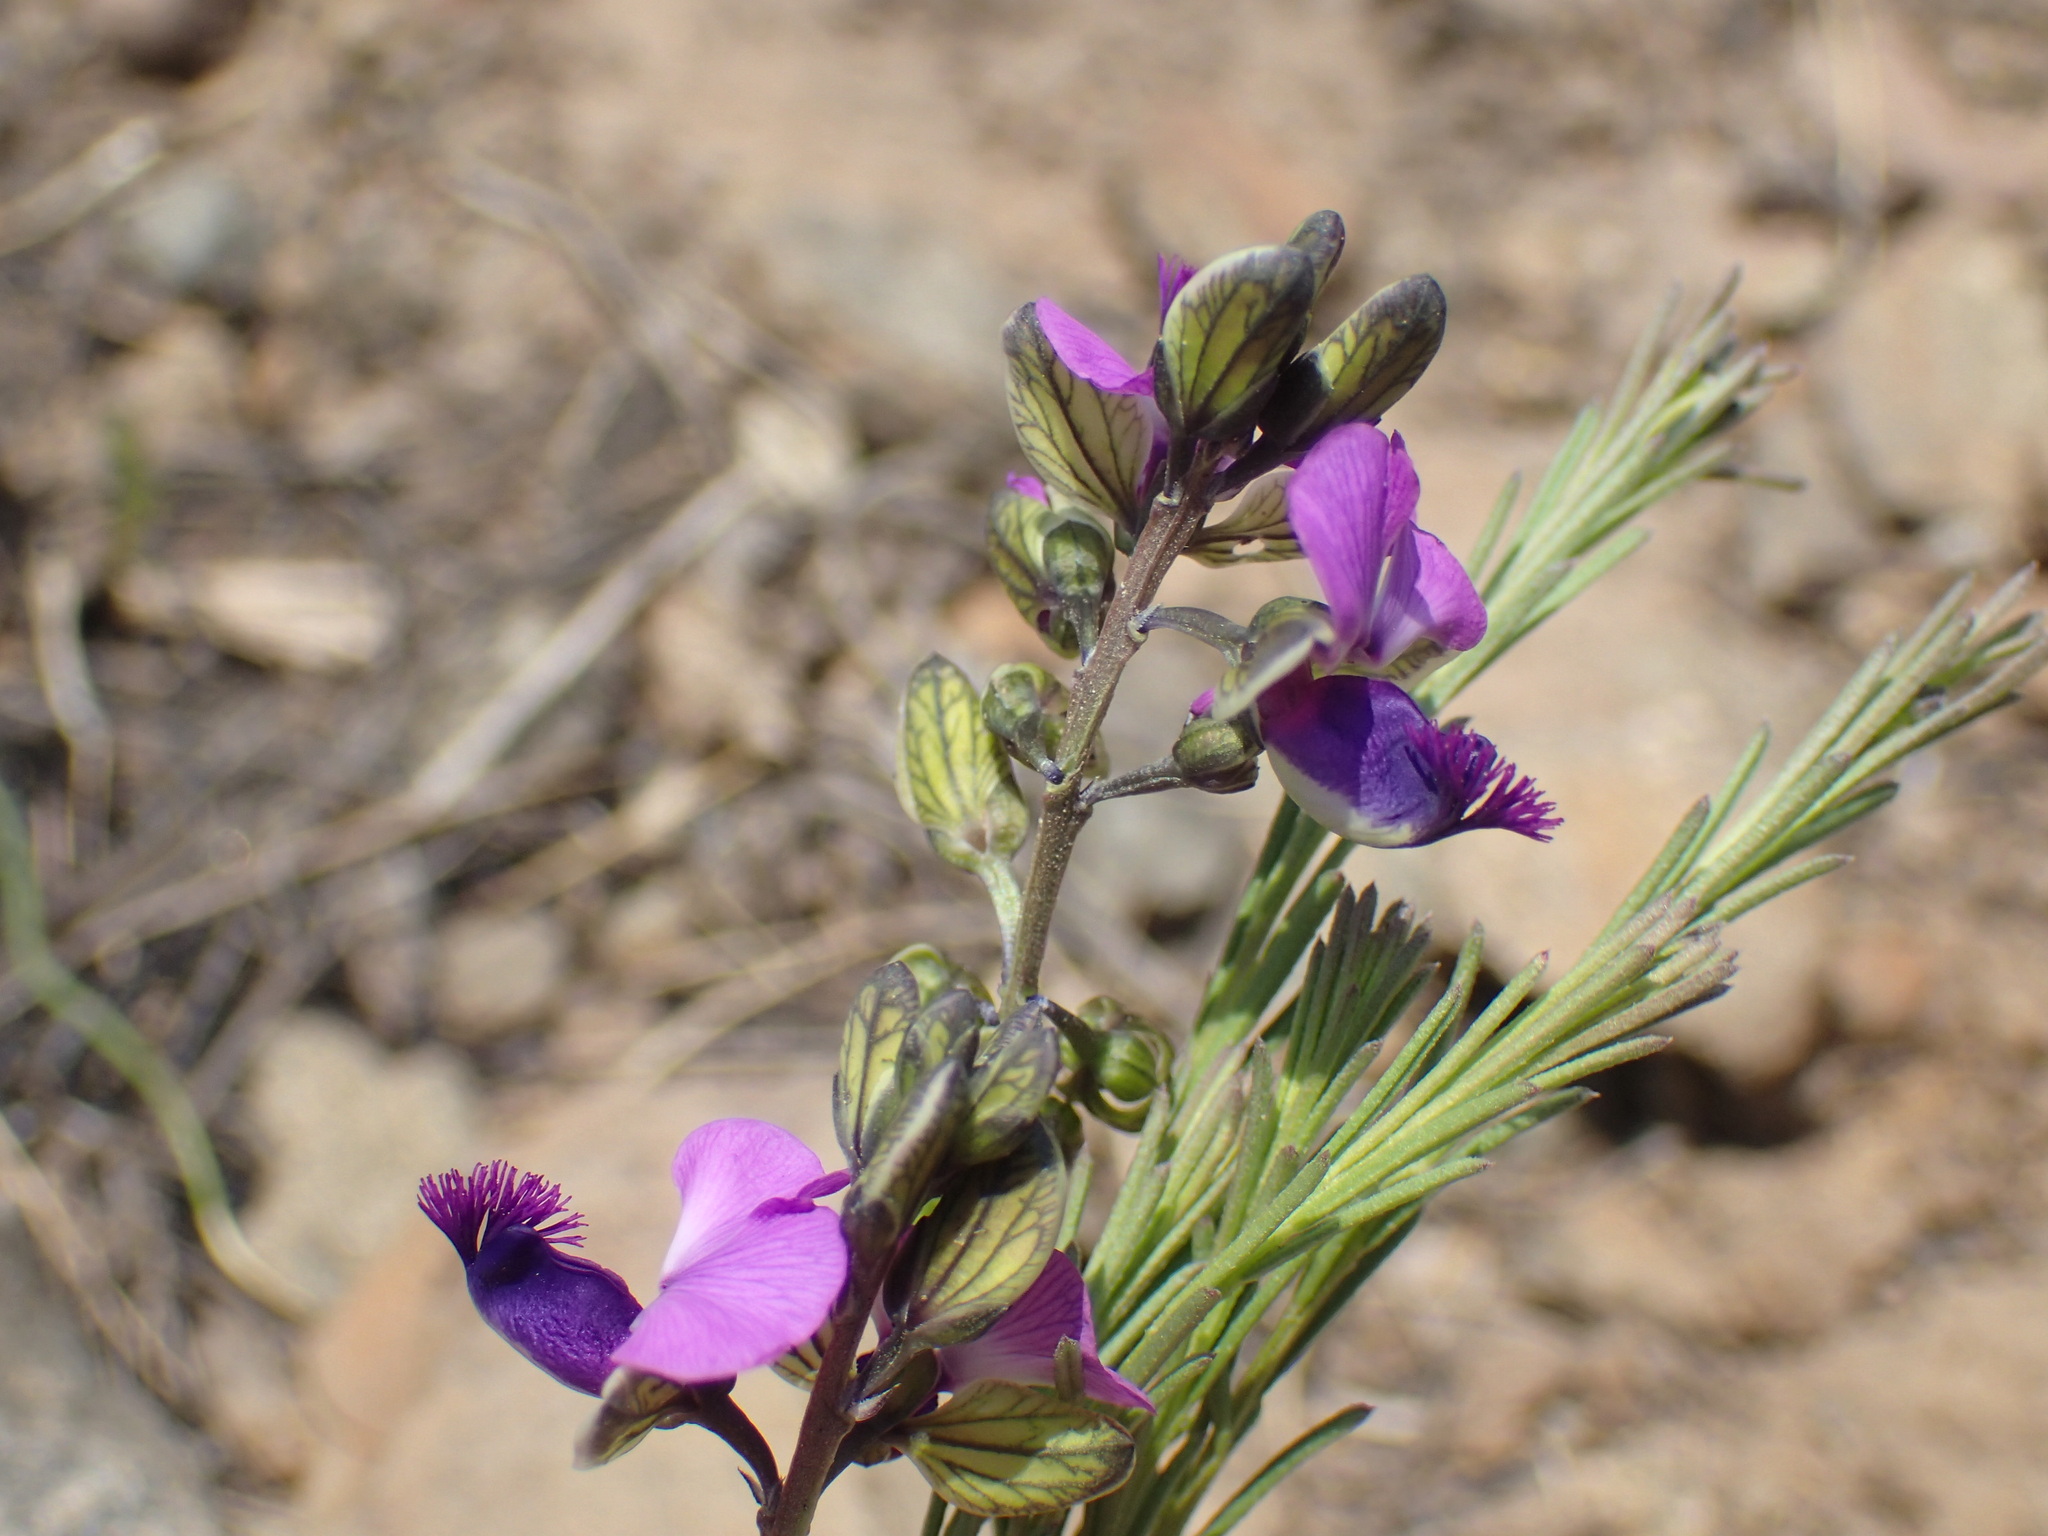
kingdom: Plantae
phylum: Tracheophyta
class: Magnoliopsida
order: Fabales
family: Polygalaceae
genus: Polygala
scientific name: Polygala gracilenta
